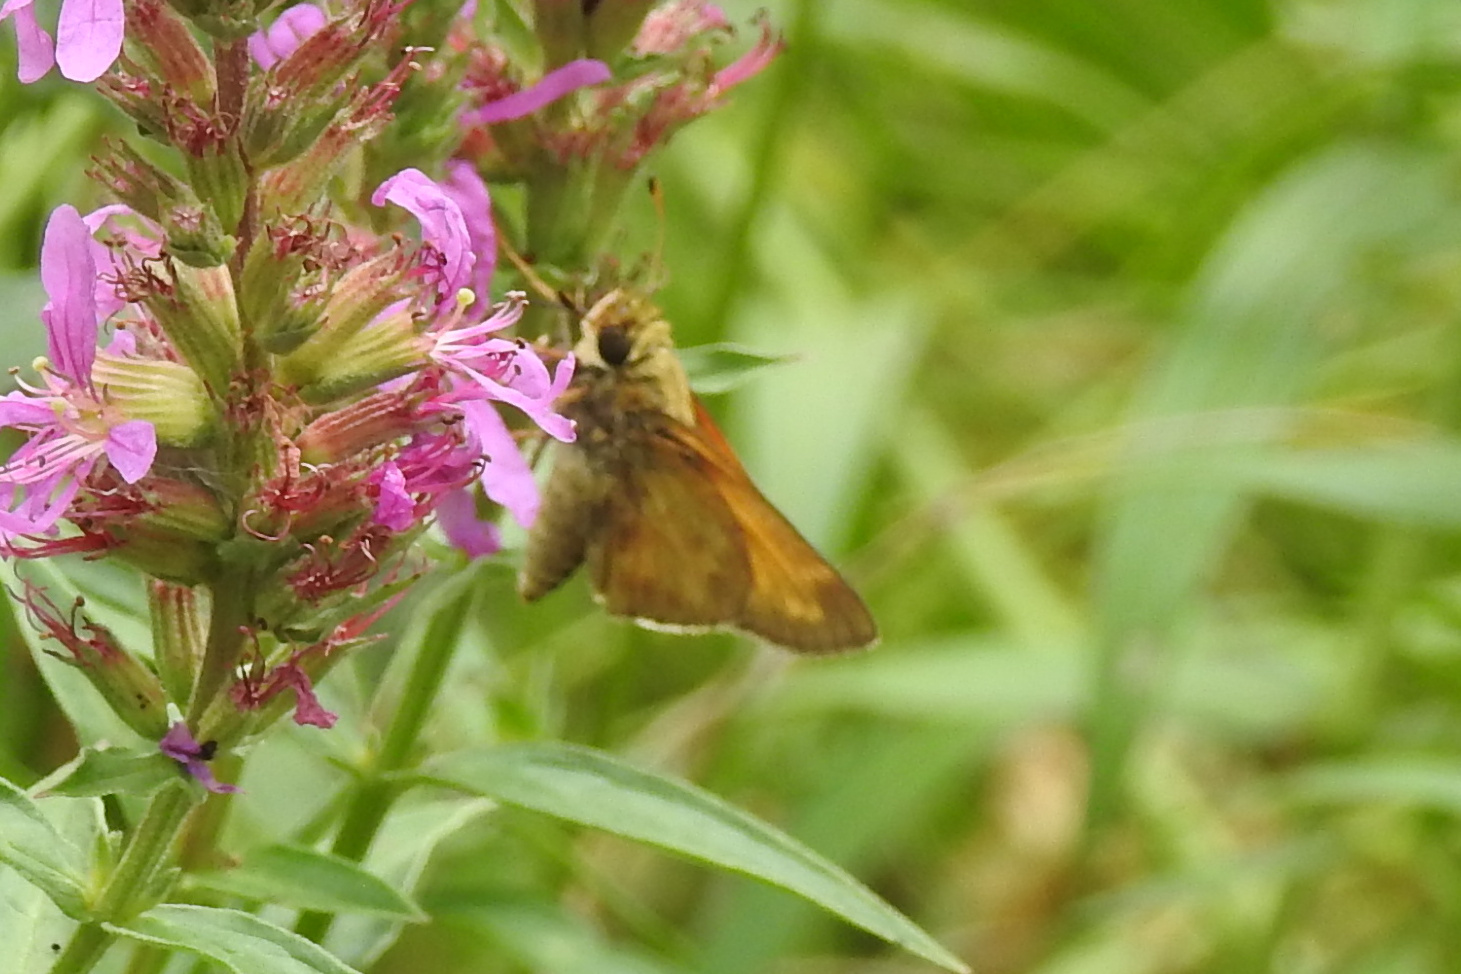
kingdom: Animalia
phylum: Arthropoda
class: Insecta
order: Lepidoptera
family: Hesperiidae
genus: Atalopedes
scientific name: Atalopedes
